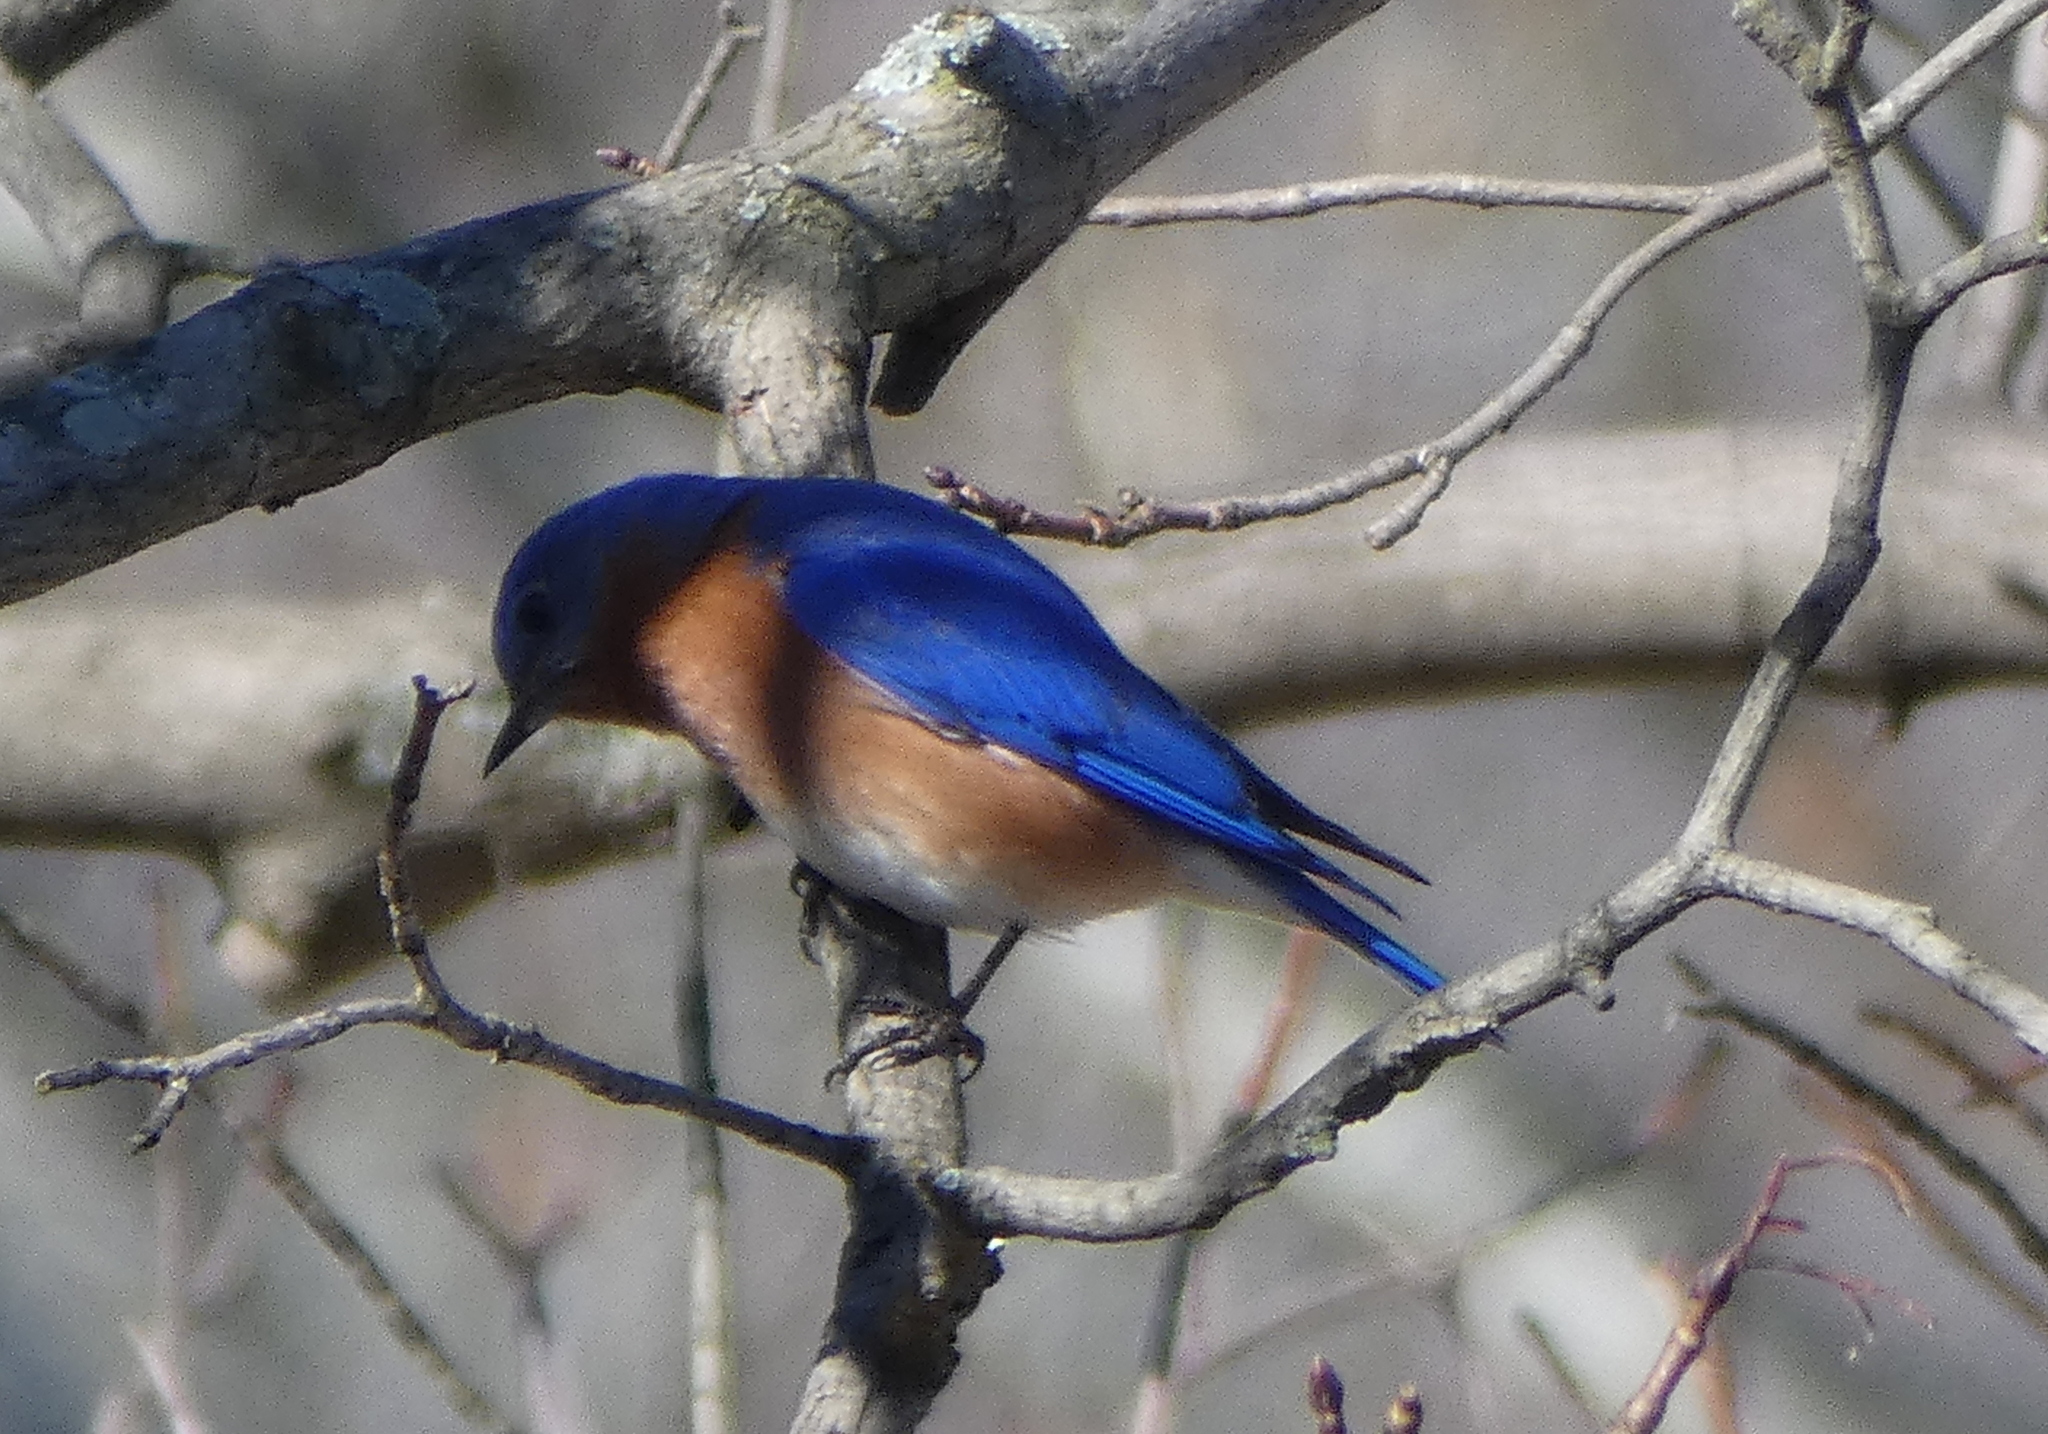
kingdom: Animalia
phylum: Chordata
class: Aves
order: Passeriformes
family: Turdidae
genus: Sialia
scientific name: Sialia sialis
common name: Eastern bluebird
